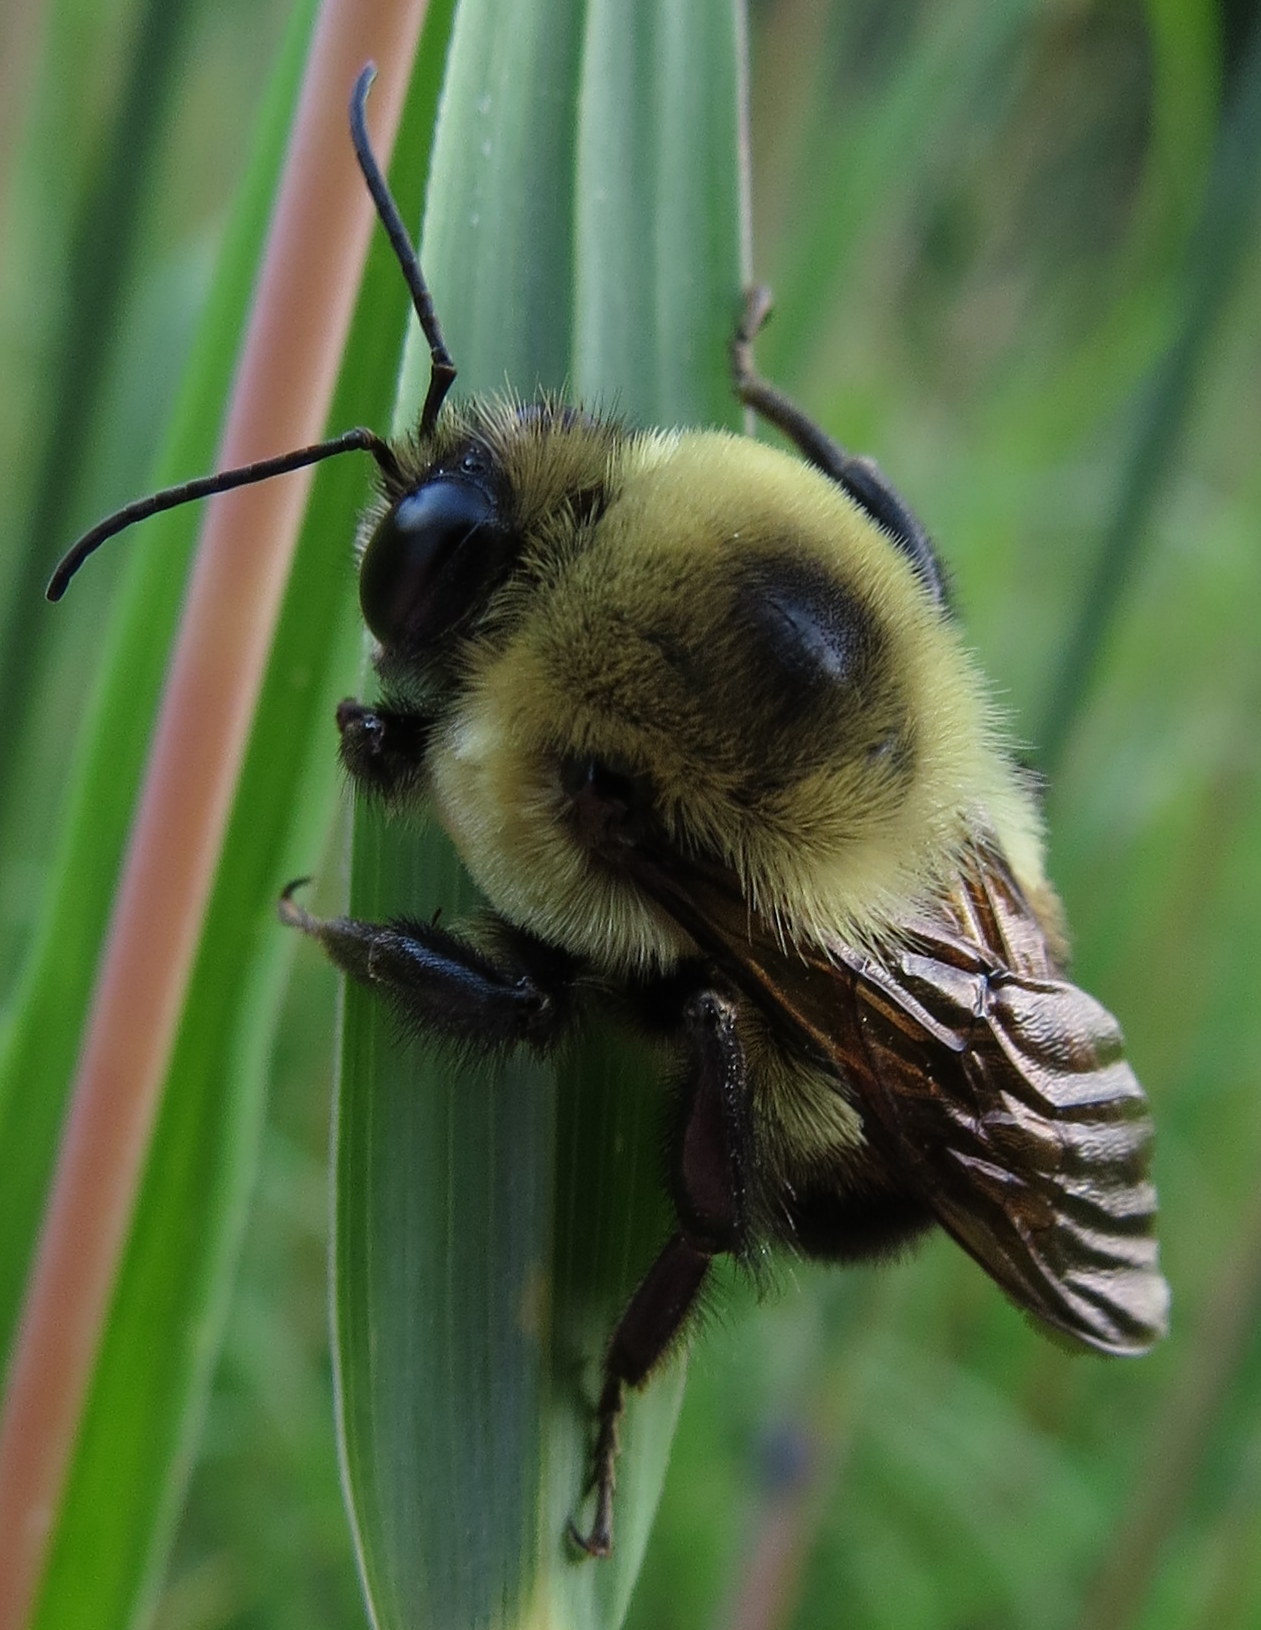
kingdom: Animalia
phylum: Arthropoda
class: Insecta
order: Hymenoptera
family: Apidae
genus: Bombus
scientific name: Bombus griseocollis
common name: Brown-belted bumble bee
